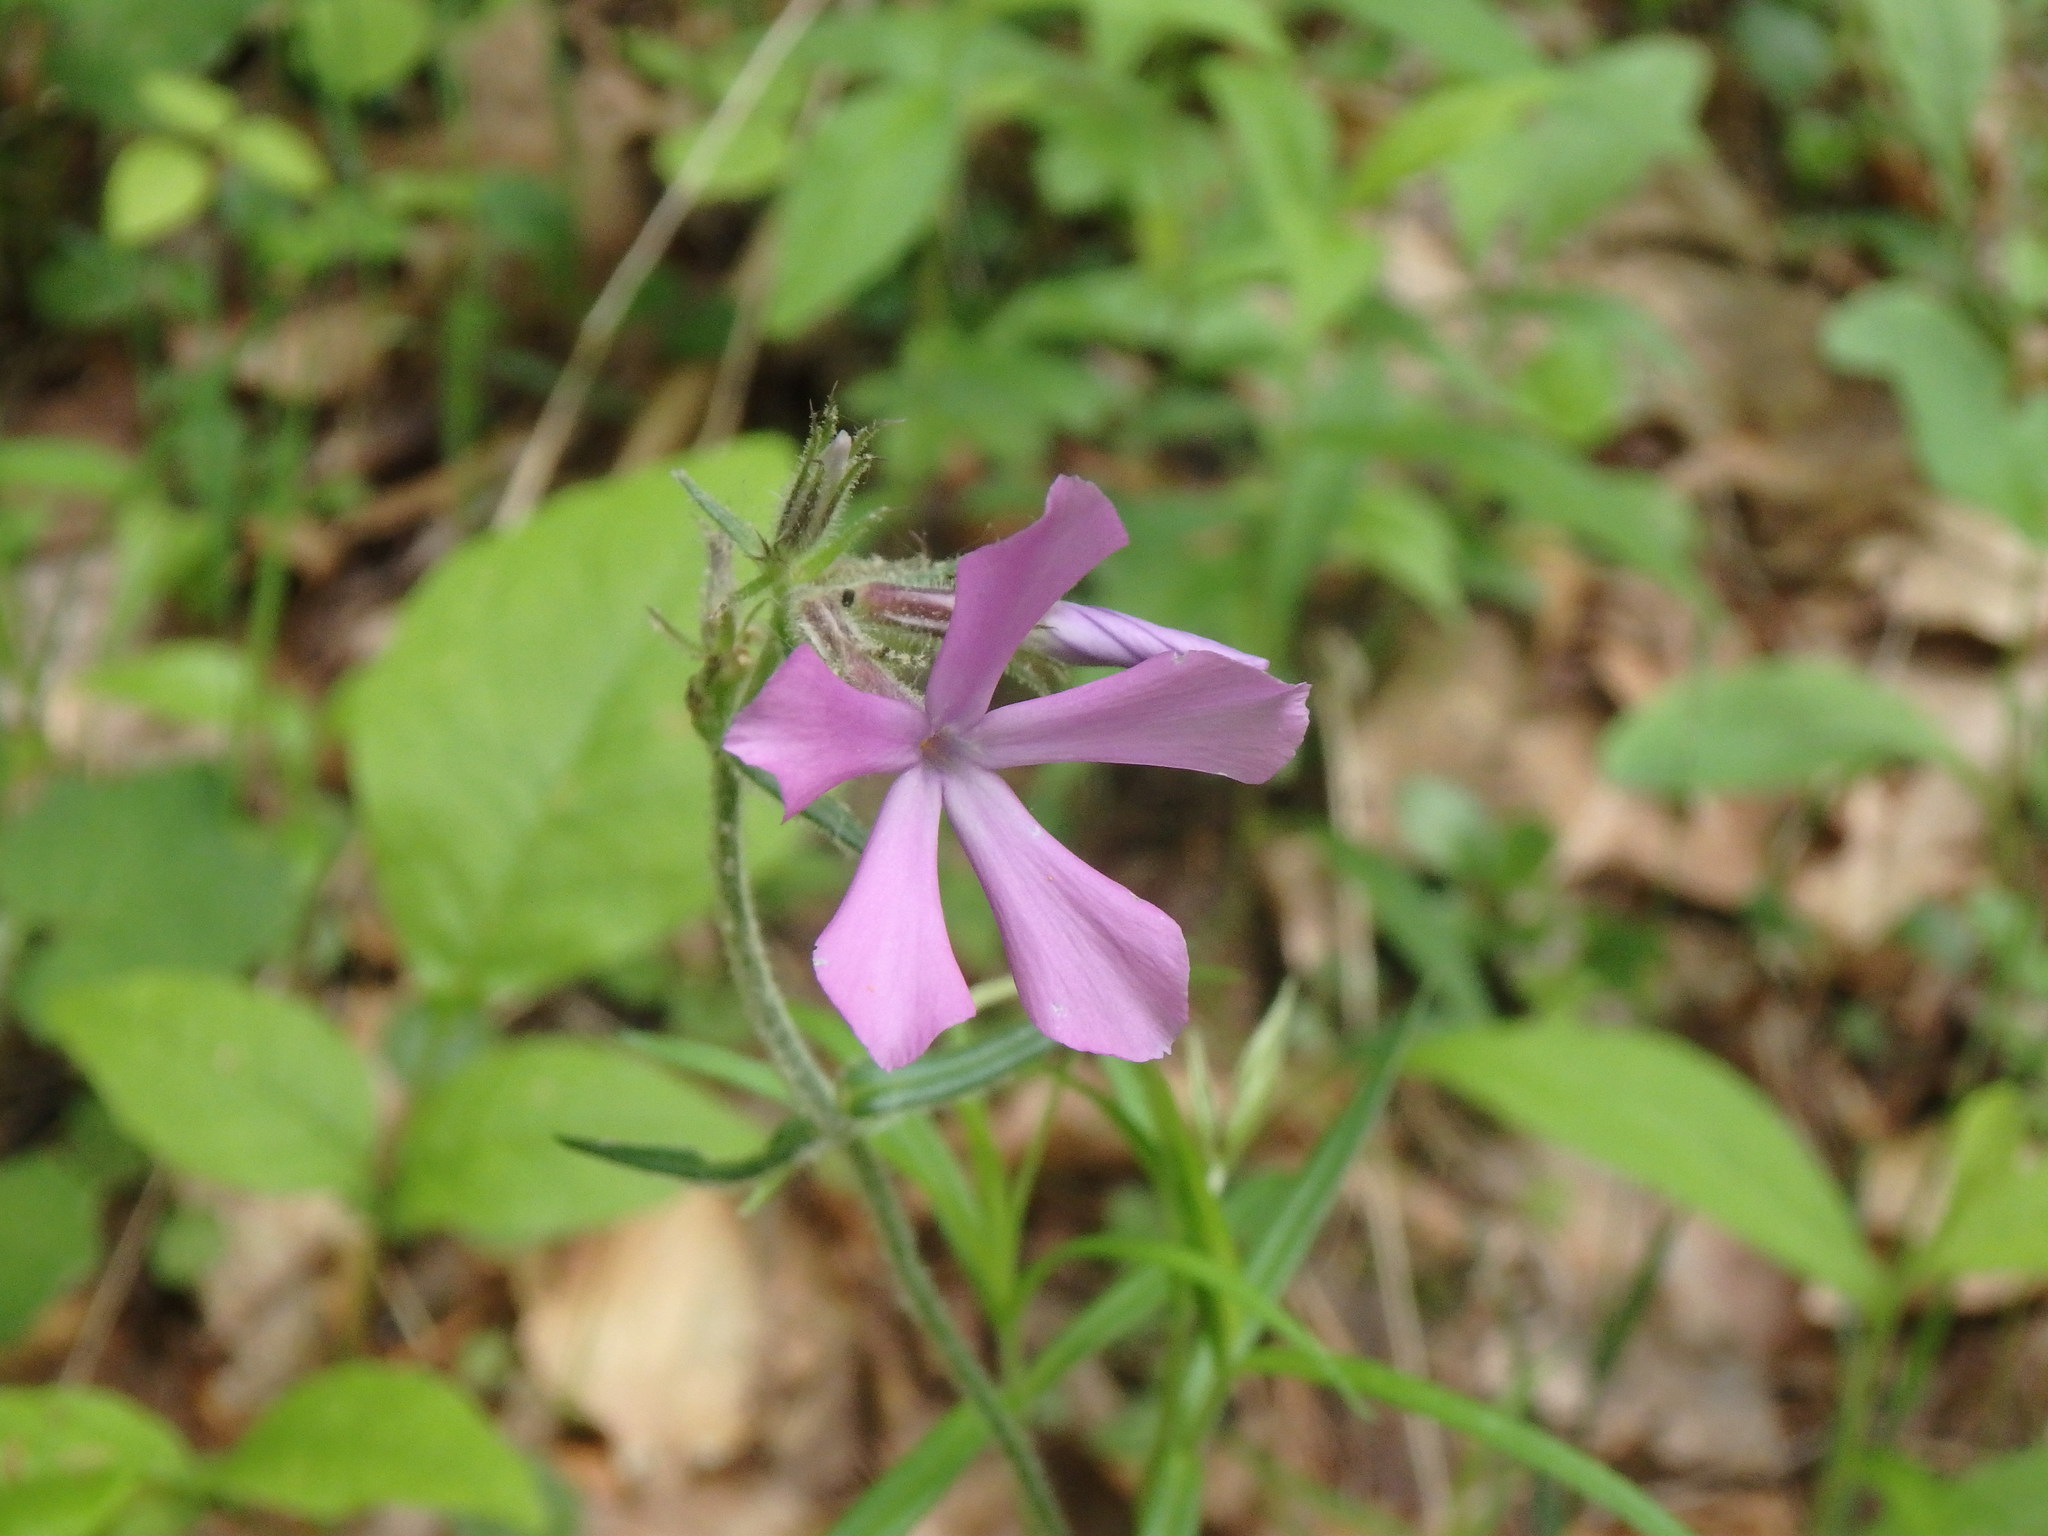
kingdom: Plantae
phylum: Tracheophyta
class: Magnoliopsida
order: Ericales
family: Polemoniaceae
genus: Phlox
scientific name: Phlox pilosa
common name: Prairie phlox
